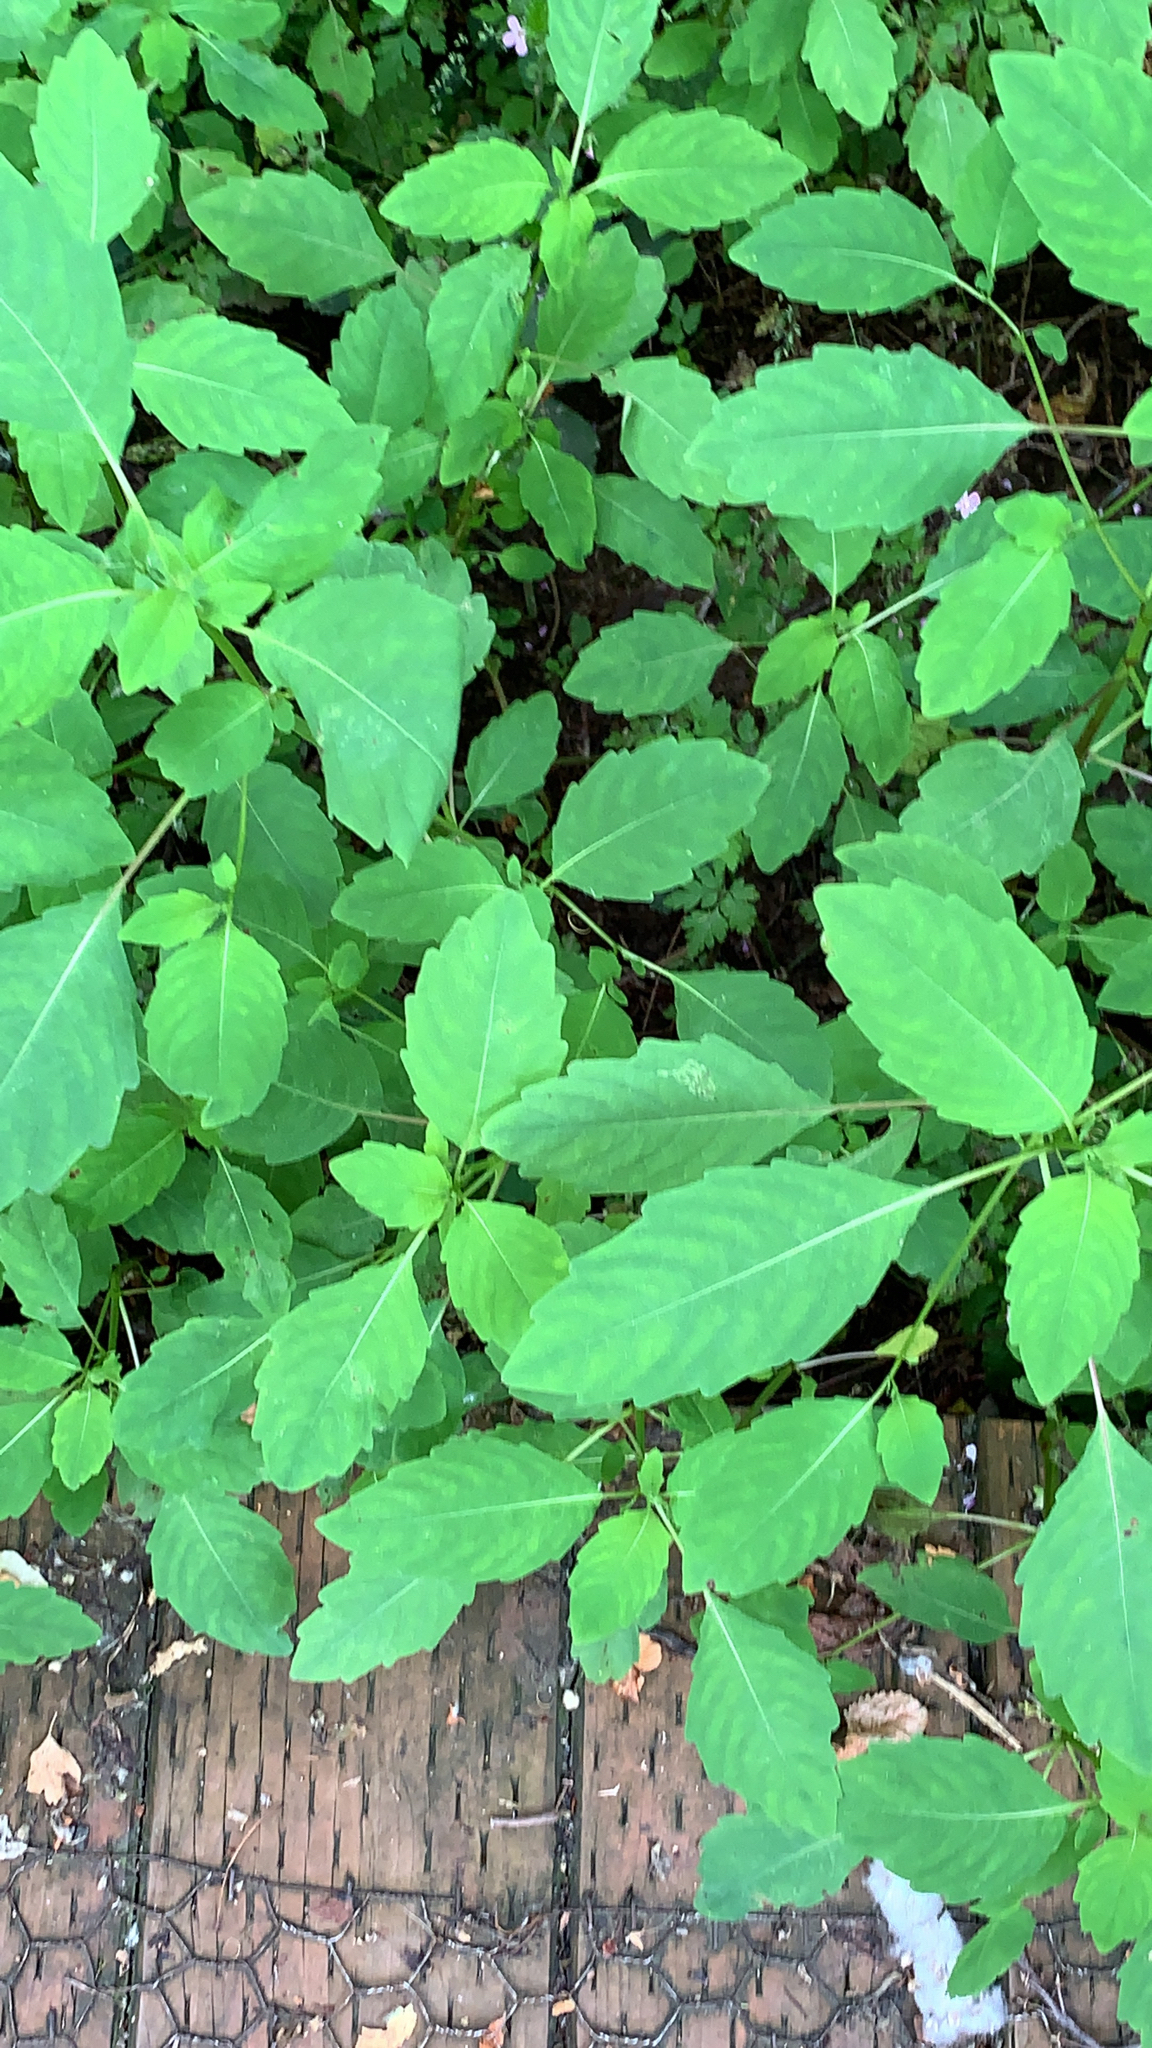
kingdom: Plantae
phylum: Tracheophyta
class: Magnoliopsida
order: Ericales
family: Balsaminaceae
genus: Impatiens
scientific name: Impatiens capensis
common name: Orange balsam
